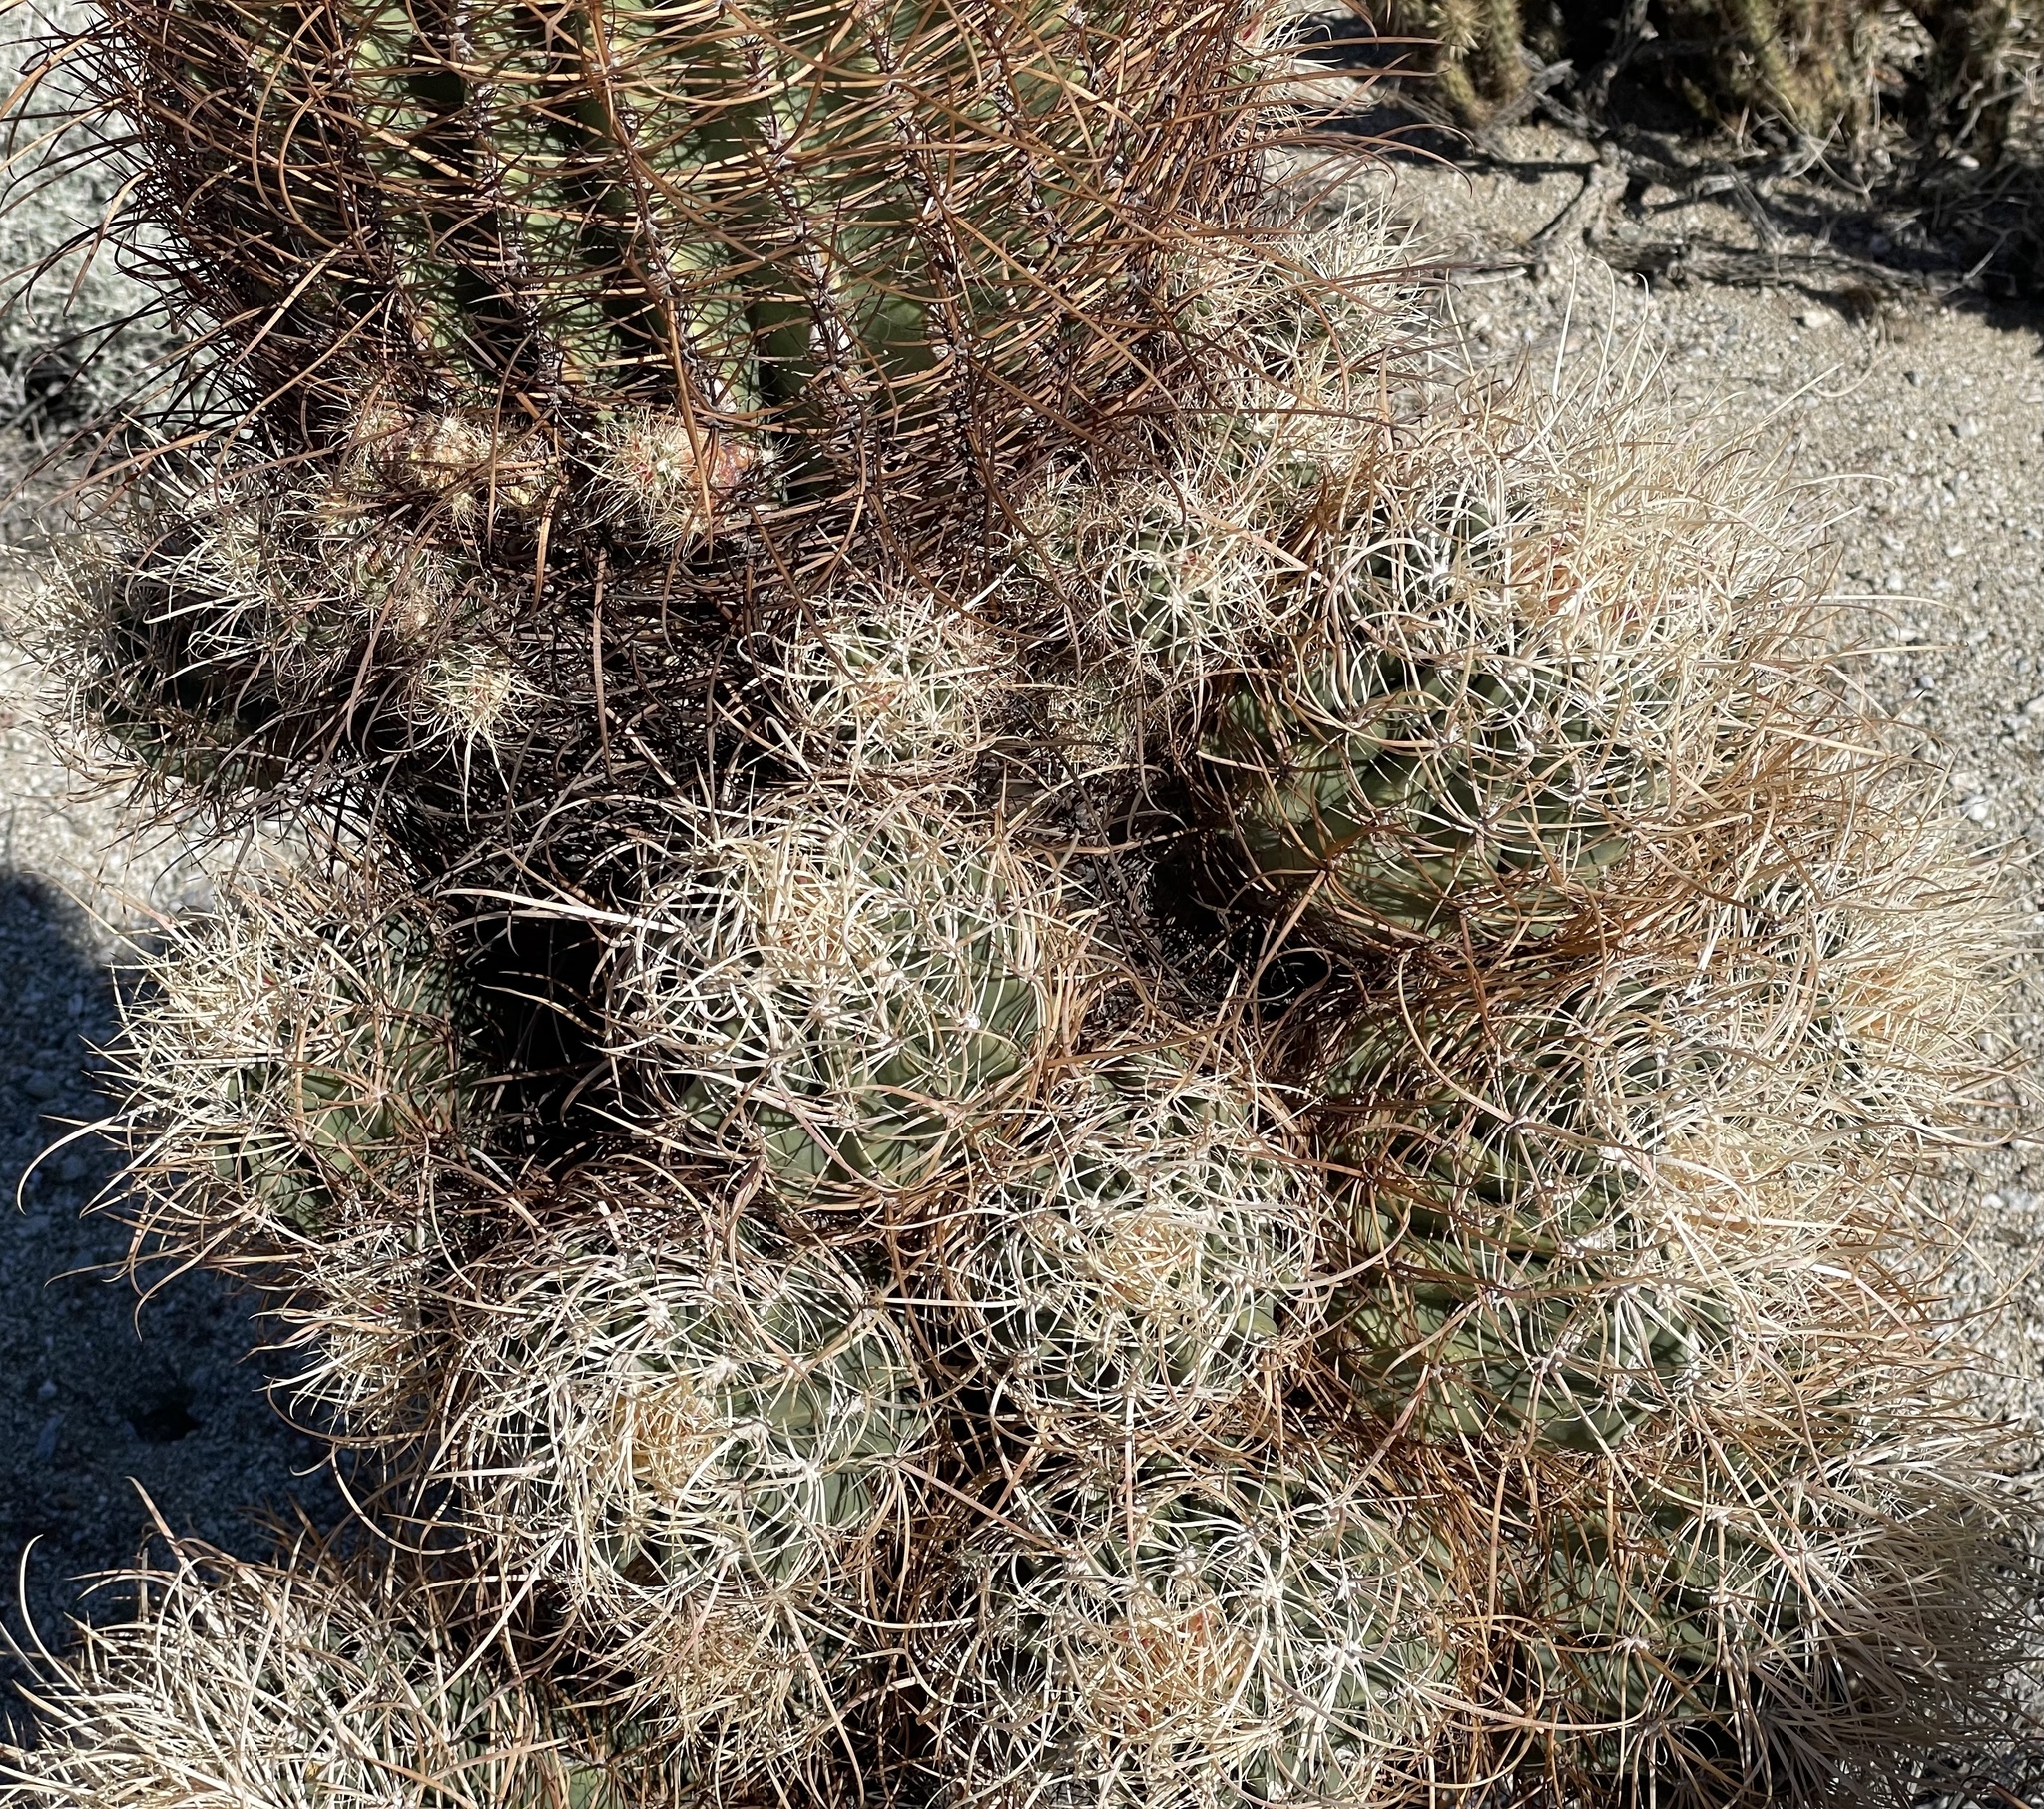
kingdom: Plantae
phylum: Tracheophyta
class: Magnoliopsida
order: Caryophyllales
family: Cactaceae
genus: Ferocactus
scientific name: Ferocactus cylindraceus
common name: California barrel cactus
